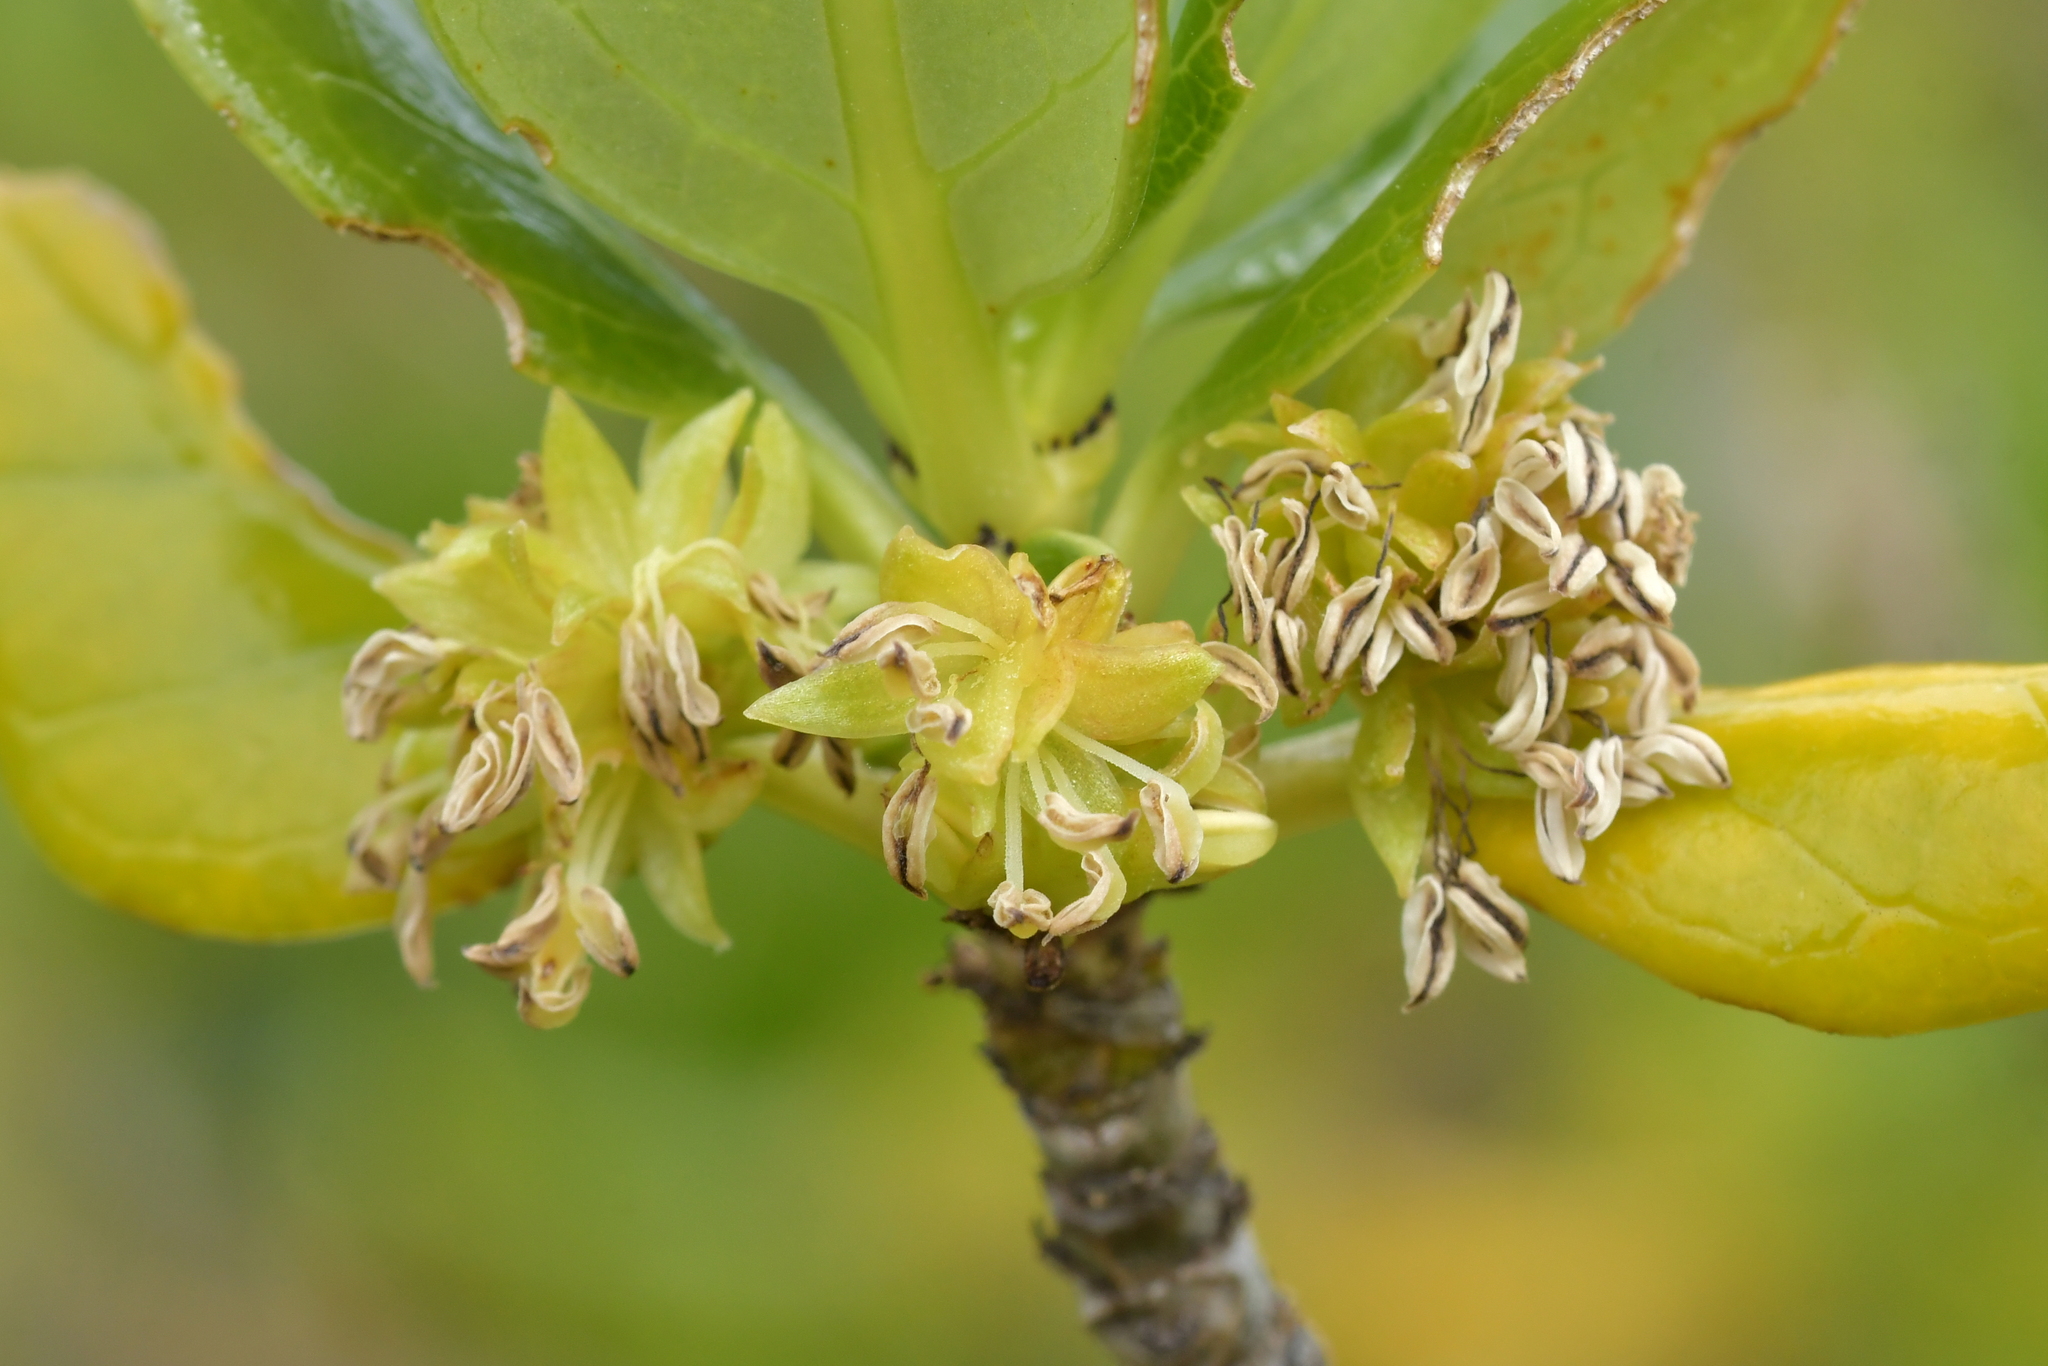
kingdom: Plantae
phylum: Tracheophyta
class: Magnoliopsida
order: Gentianales
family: Rubiaceae
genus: Coprosma
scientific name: Coprosma repens
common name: Tree bedstraw
